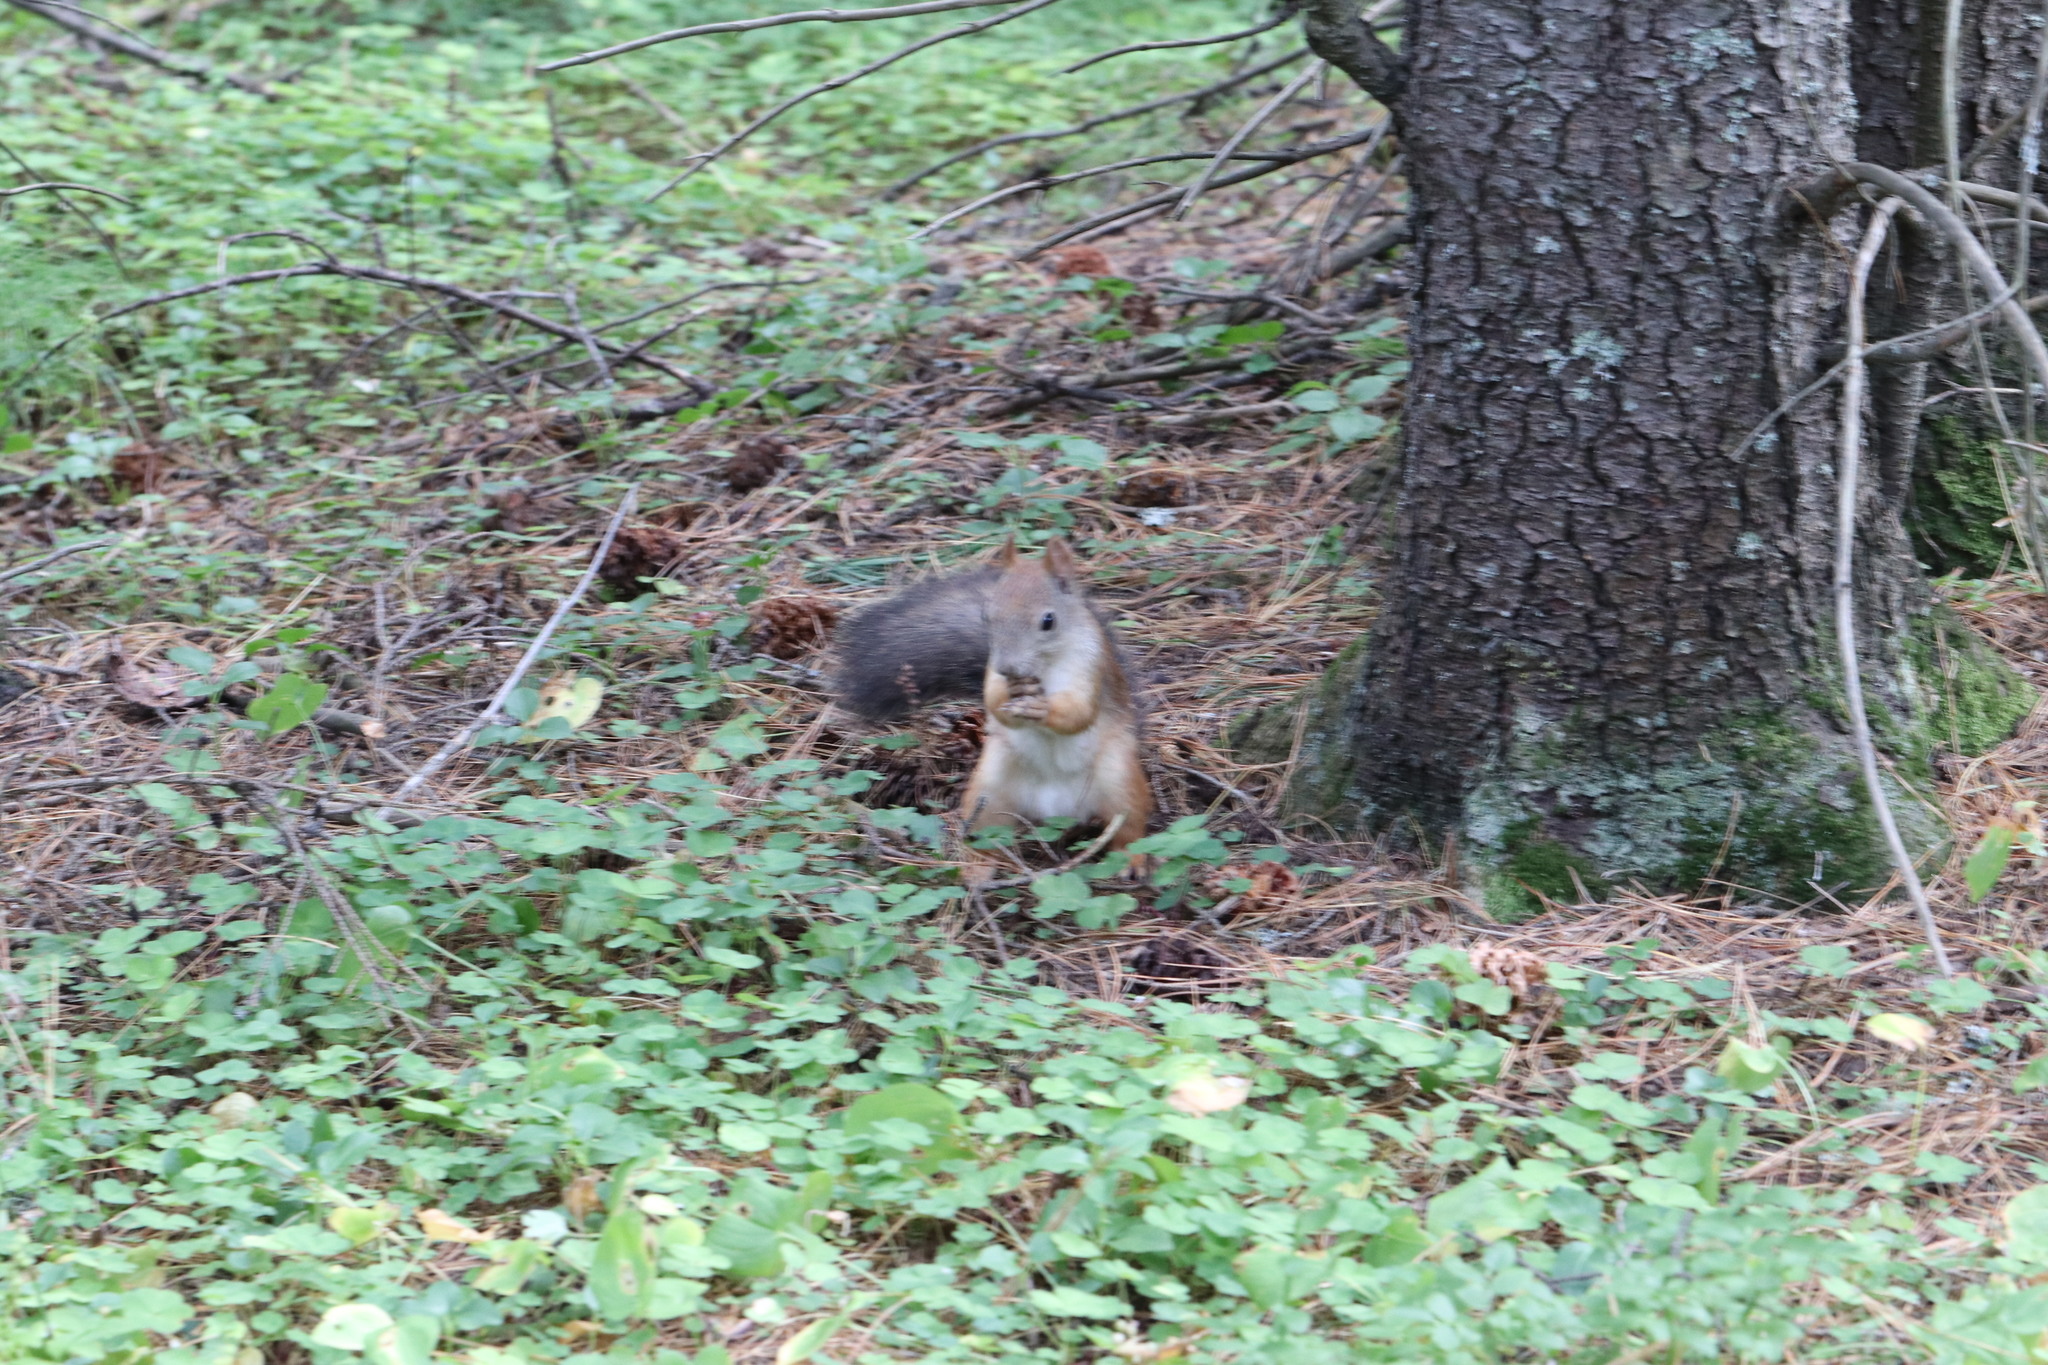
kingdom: Animalia
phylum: Chordata
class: Mammalia
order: Rodentia
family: Sciuridae
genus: Sciurus
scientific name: Sciurus vulgaris
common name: Eurasian red squirrel
